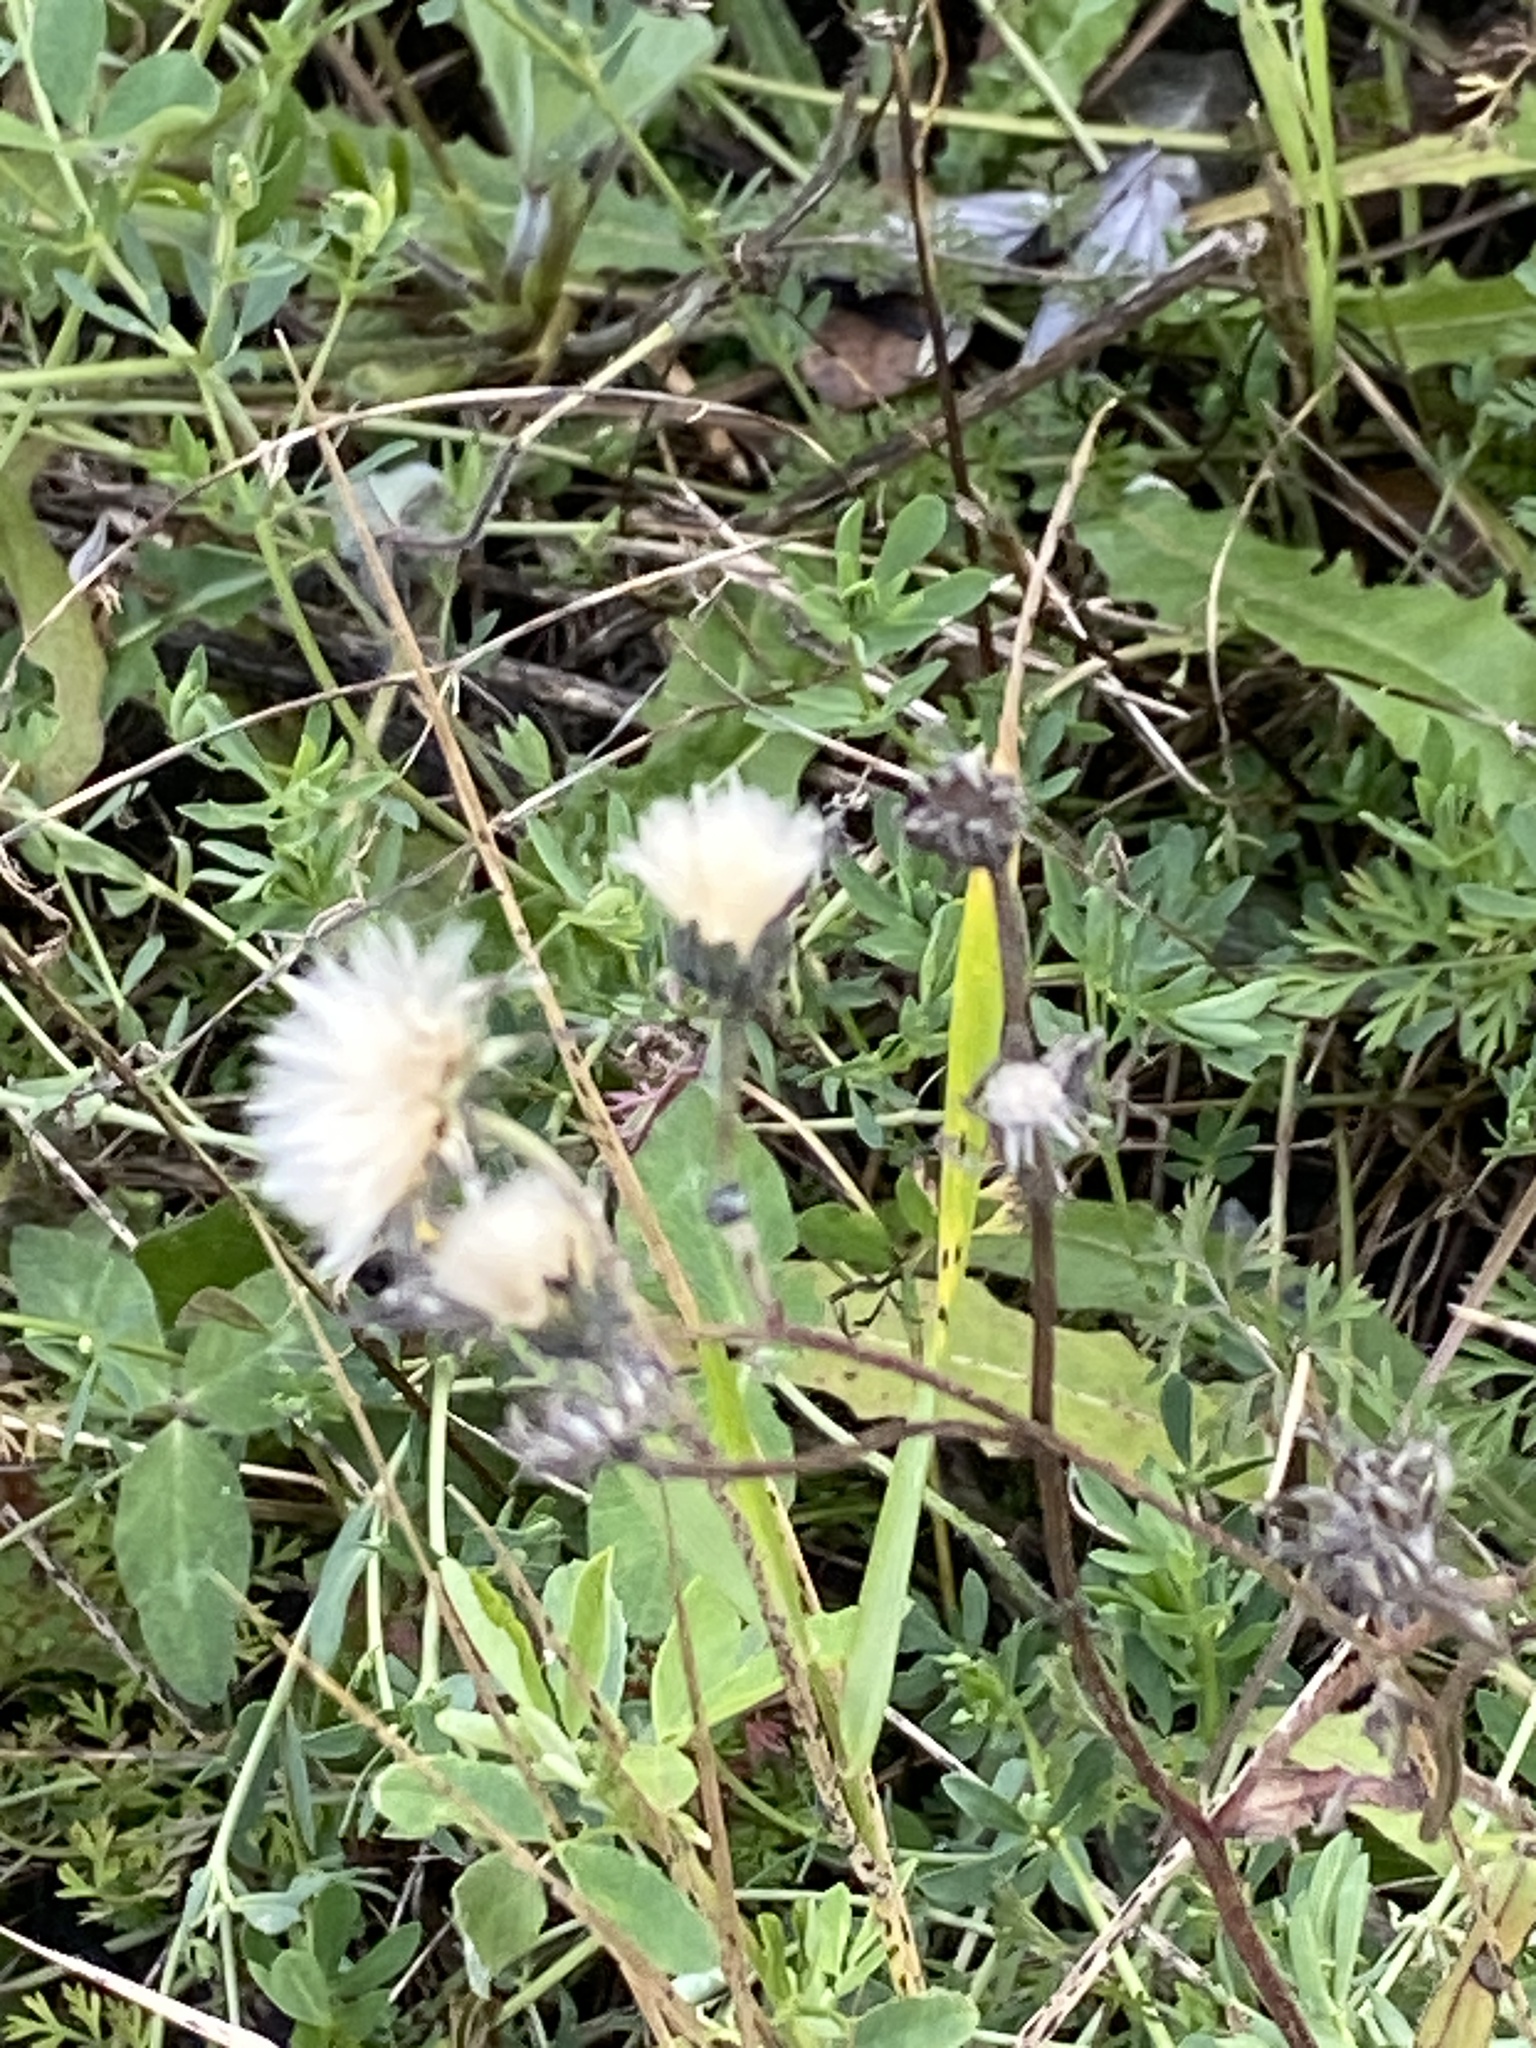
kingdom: Plantae
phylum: Tracheophyta
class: Magnoliopsida
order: Asterales
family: Asteraceae
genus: Picris
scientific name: Picris hieracioides
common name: Hawkweed oxtongue
